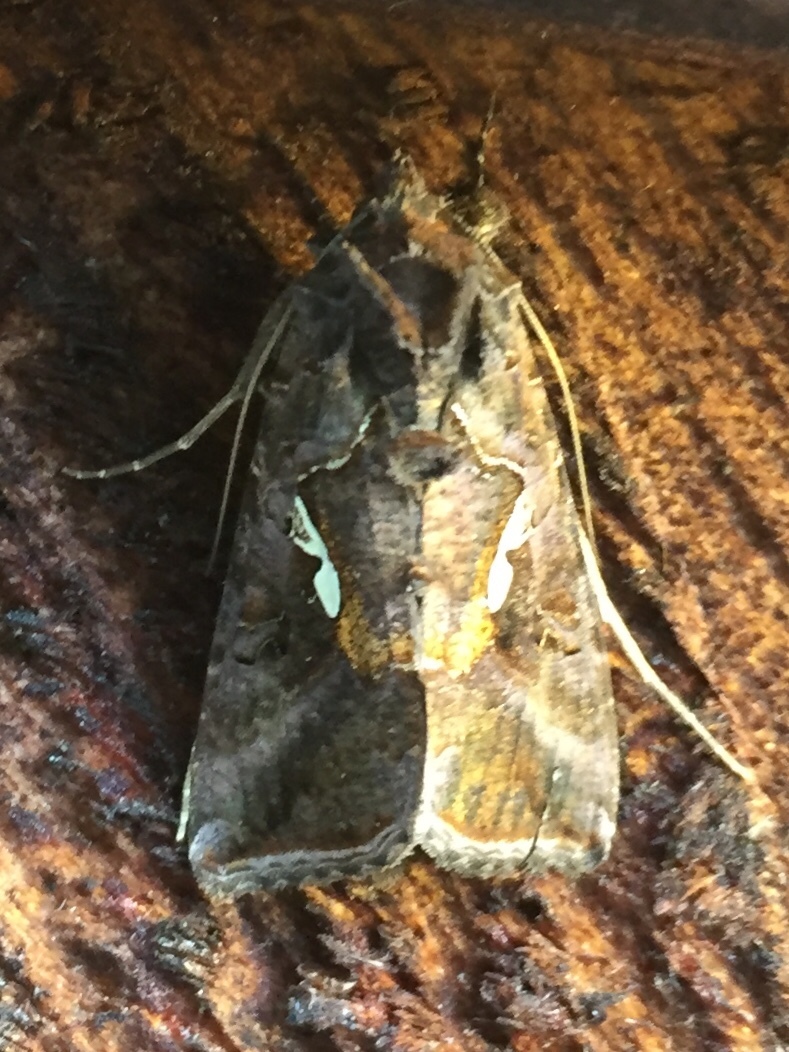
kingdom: Animalia
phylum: Arthropoda
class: Insecta
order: Lepidoptera
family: Noctuidae
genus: Autographa
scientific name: Autographa precationis
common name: Common looper moth
